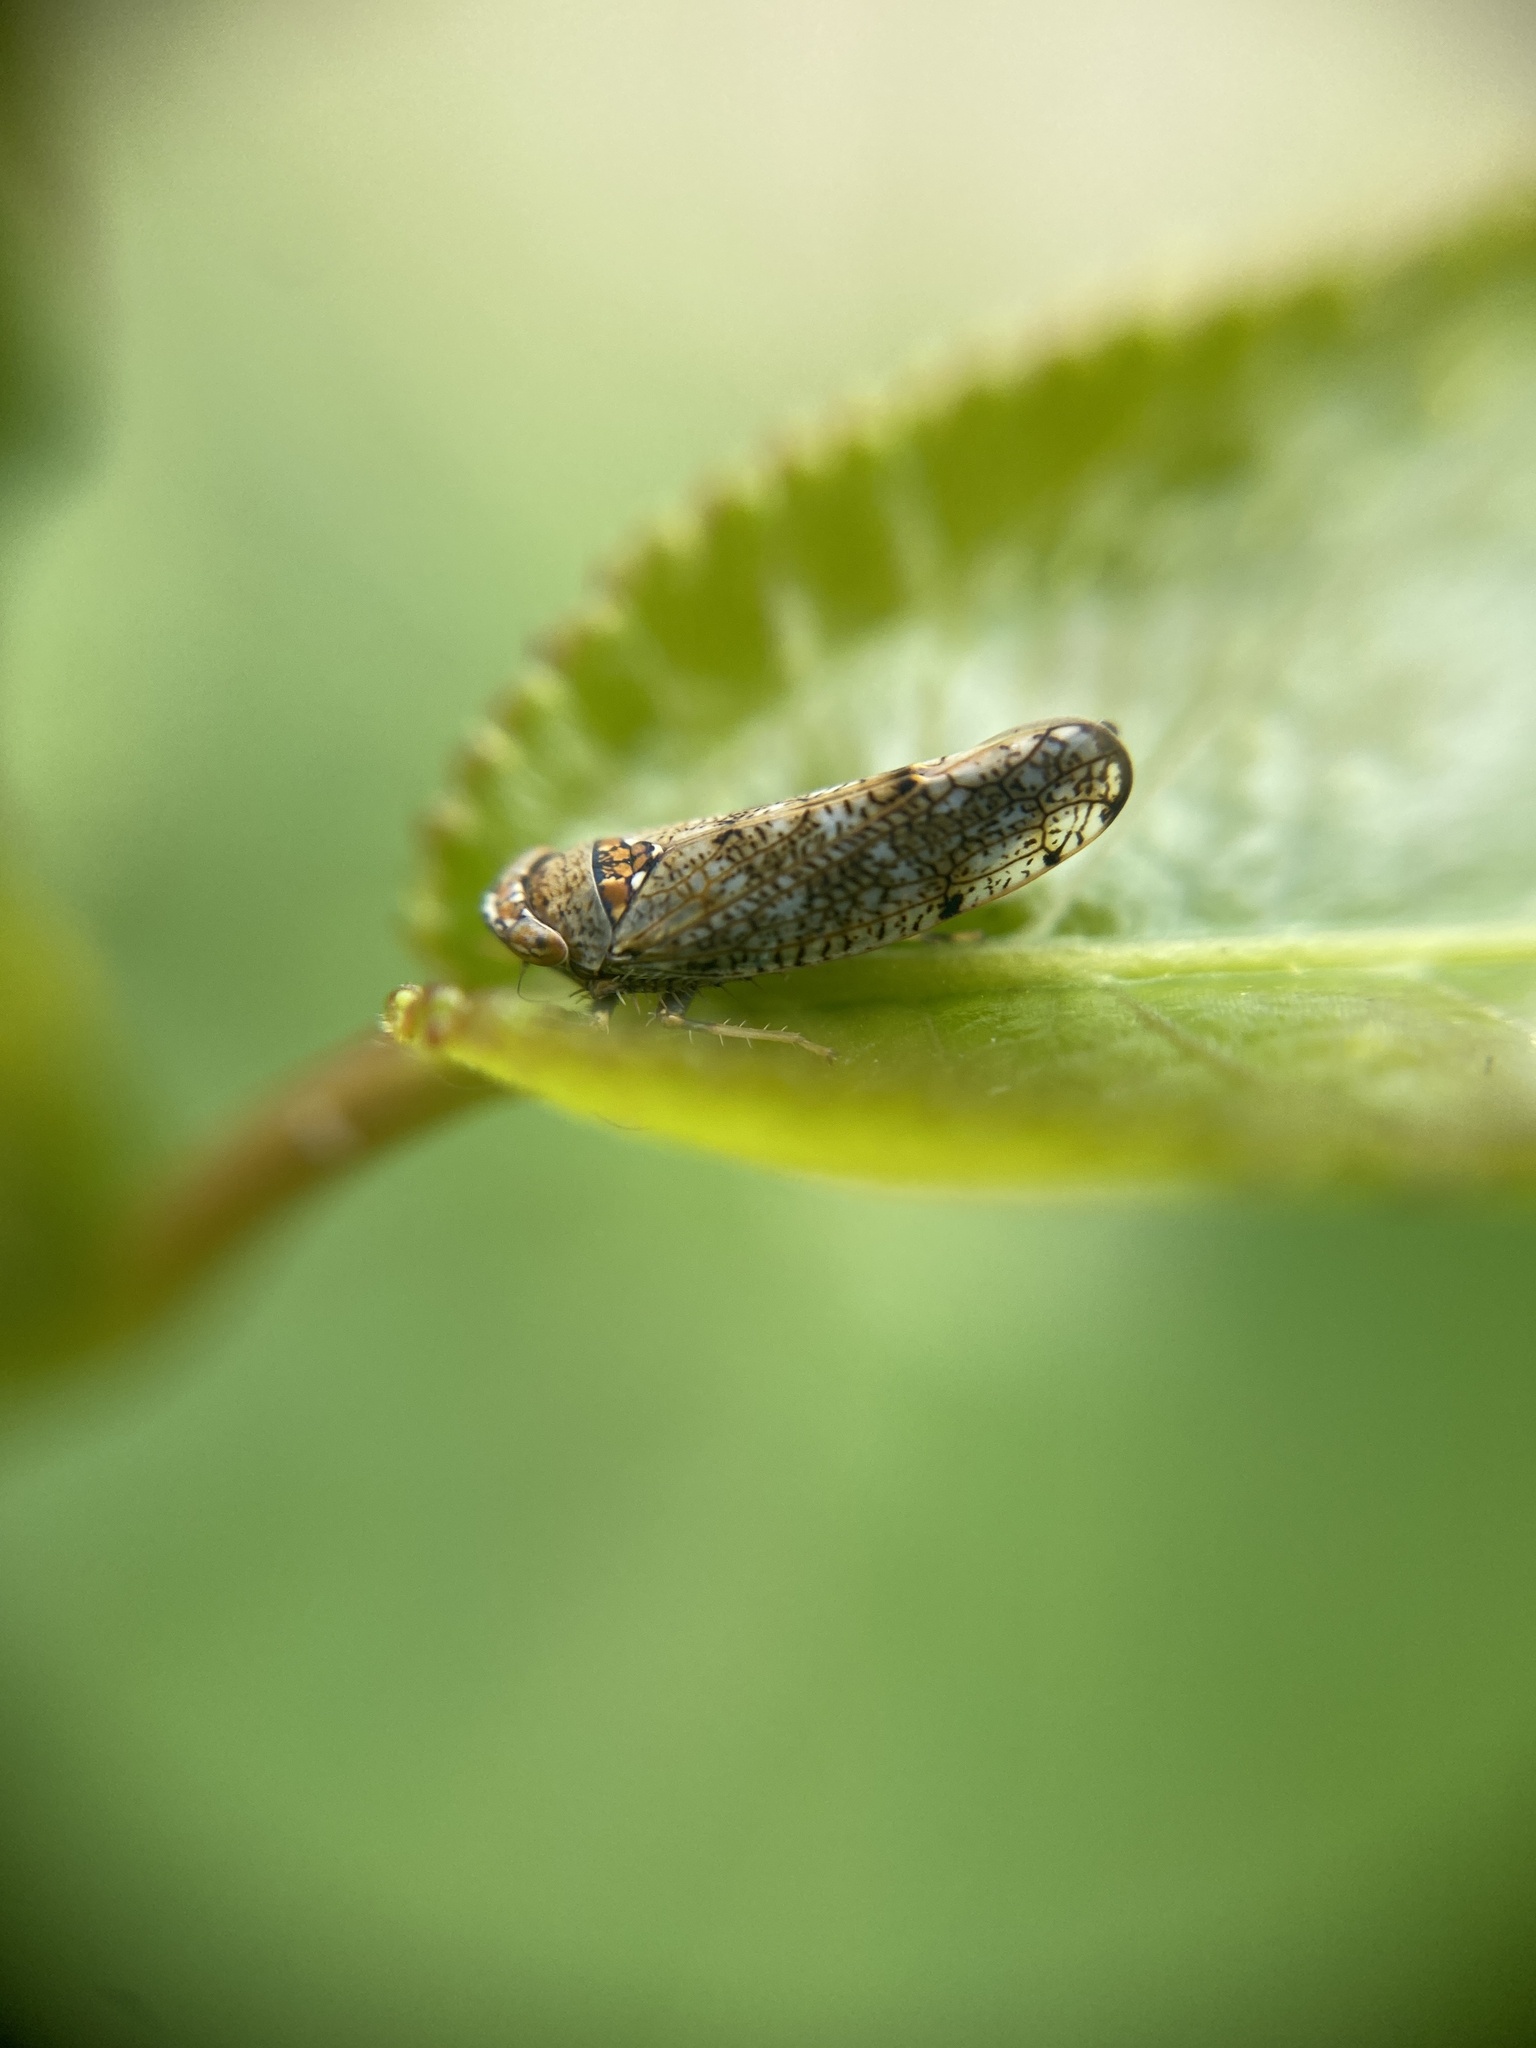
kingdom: Animalia
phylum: Arthropoda
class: Insecta
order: Hemiptera
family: Cicadellidae
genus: Orientus
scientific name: Orientus ishidae
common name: Japanese leafhopper
